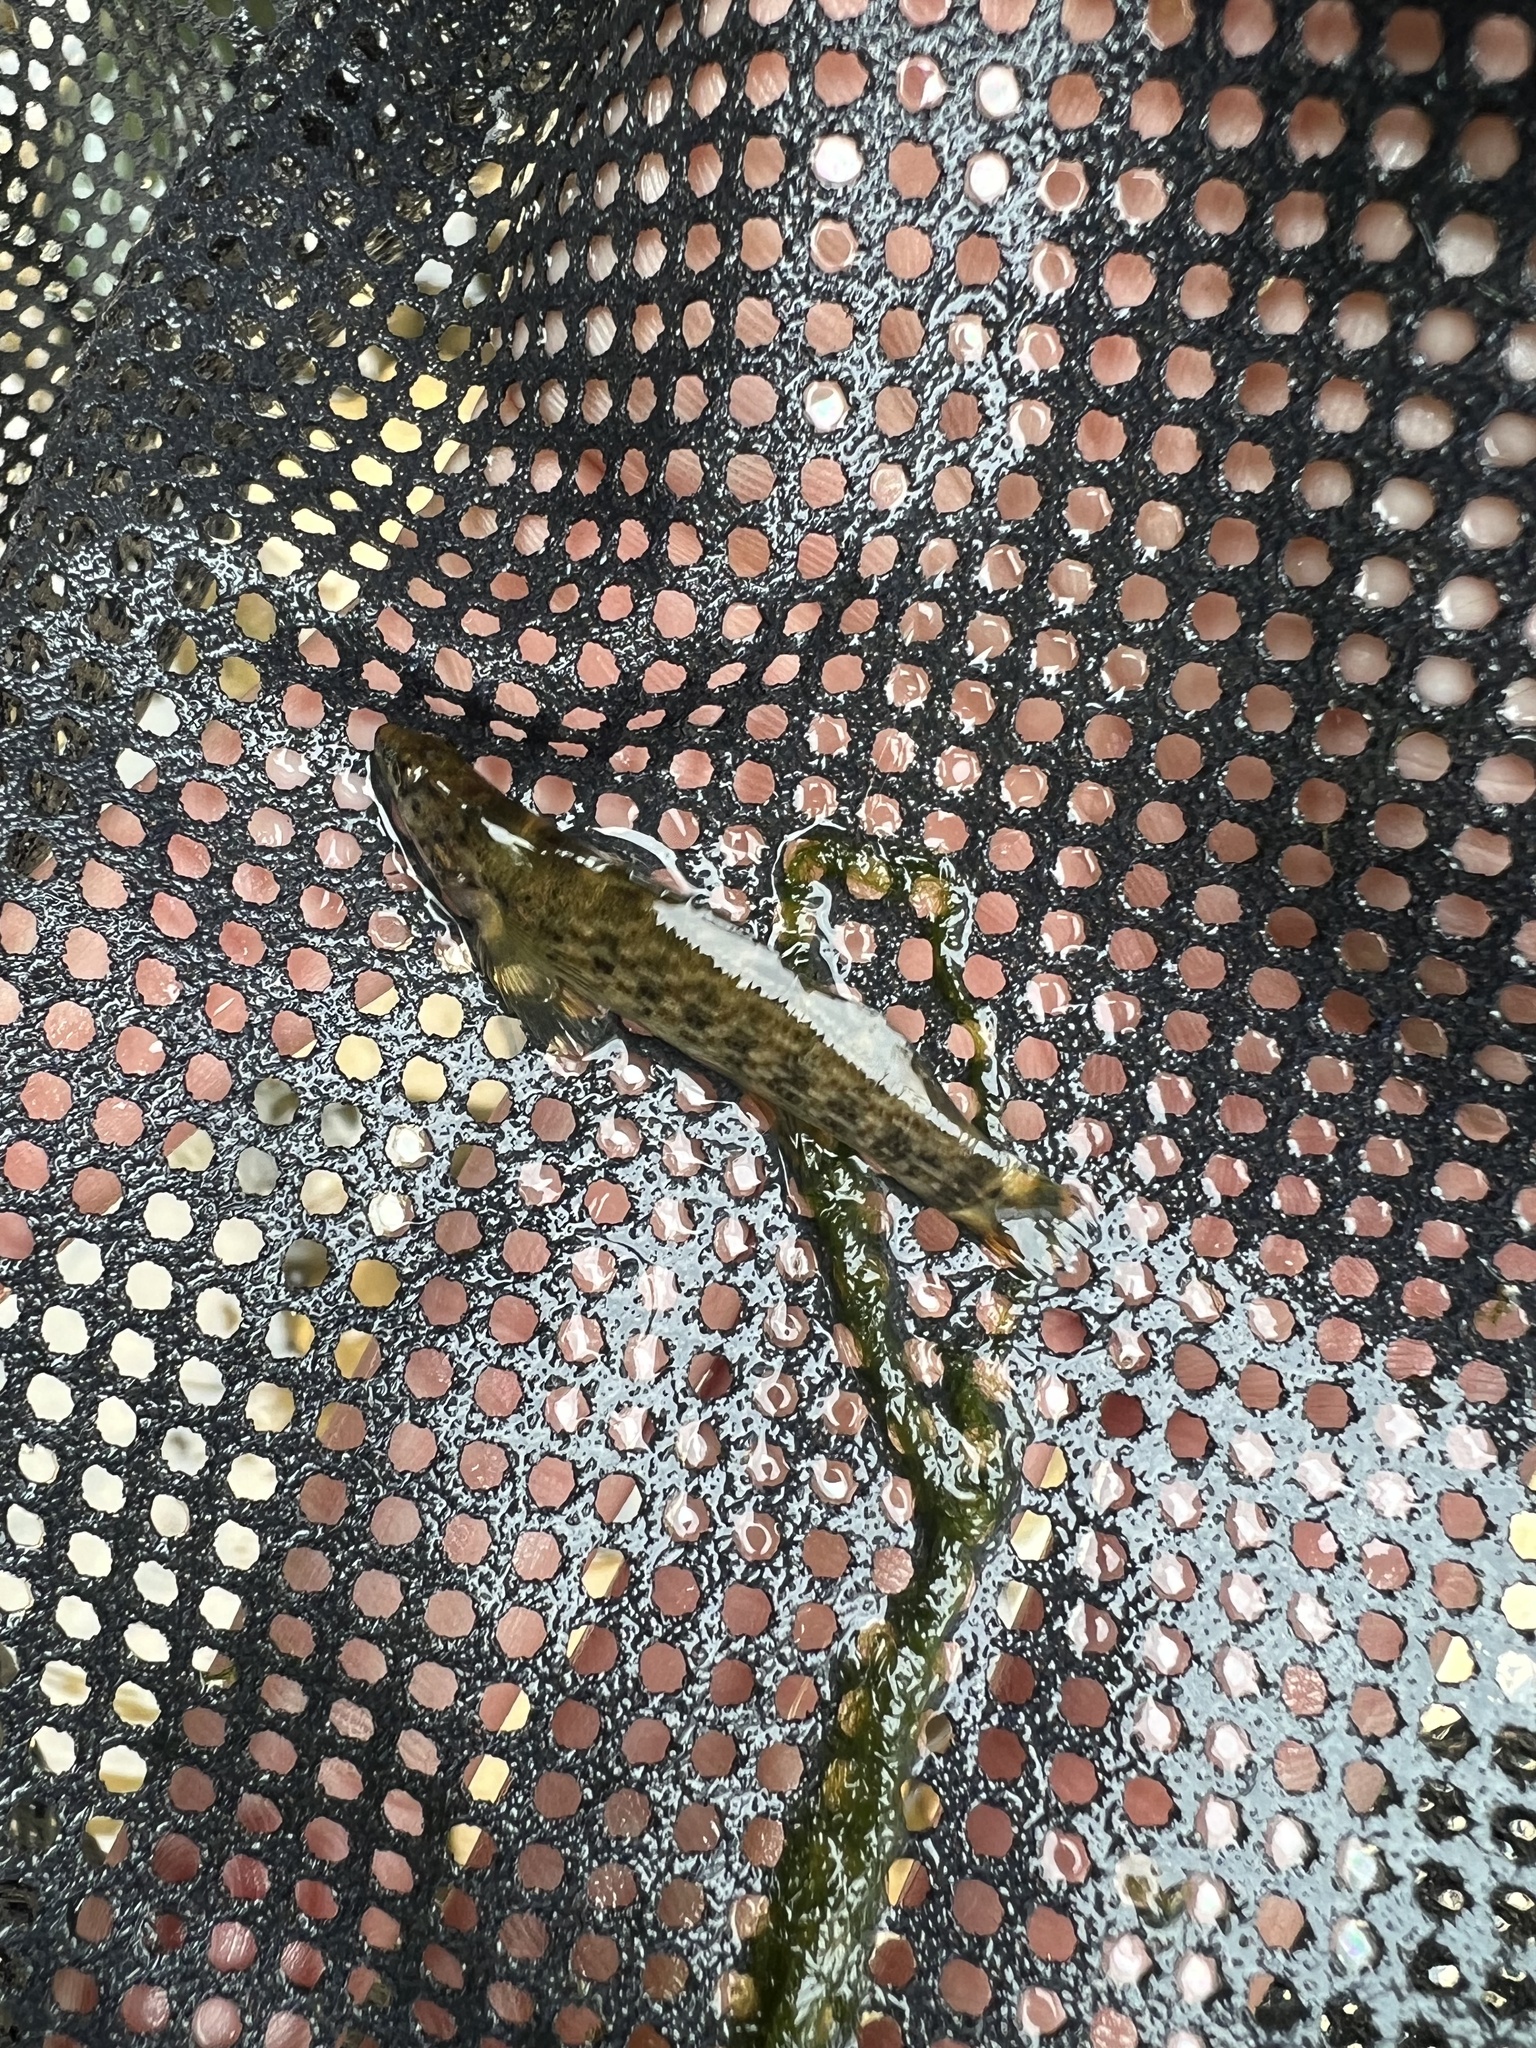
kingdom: Animalia
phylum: Chordata
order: Perciformes
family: Percidae
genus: Etheostoma
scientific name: Etheostoma rufilineatum
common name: Redline darter
